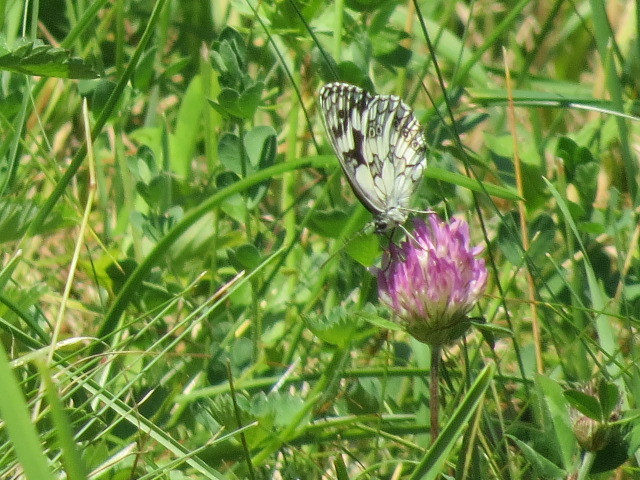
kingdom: Animalia
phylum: Arthropoda
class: Insecta
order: Lepidoptera
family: Nymphalidae
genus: Melanargia
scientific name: Melanargia galathea
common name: Marbled white
